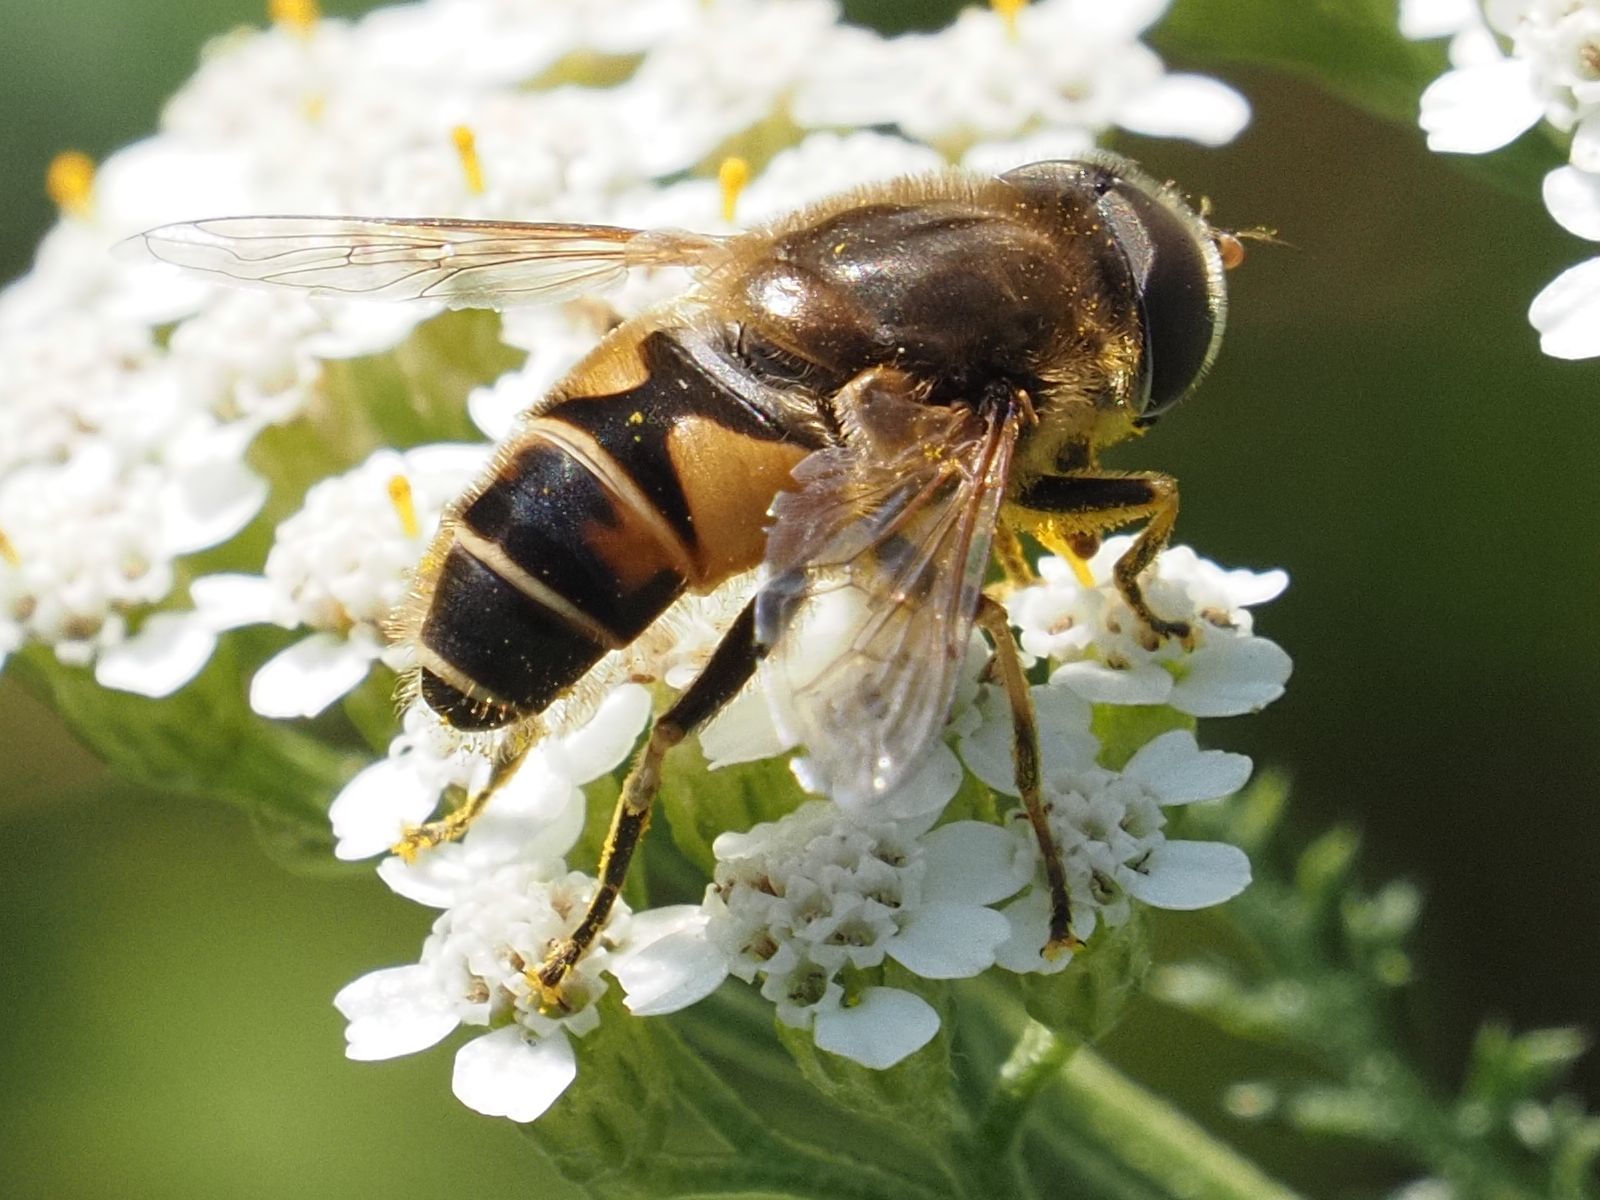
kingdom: Animalia
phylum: Arthropoda
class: Insecta
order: Diptera
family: Syrphidae
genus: Eristalis
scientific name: Eristalis nemorum
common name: Orange-spined drone fly
